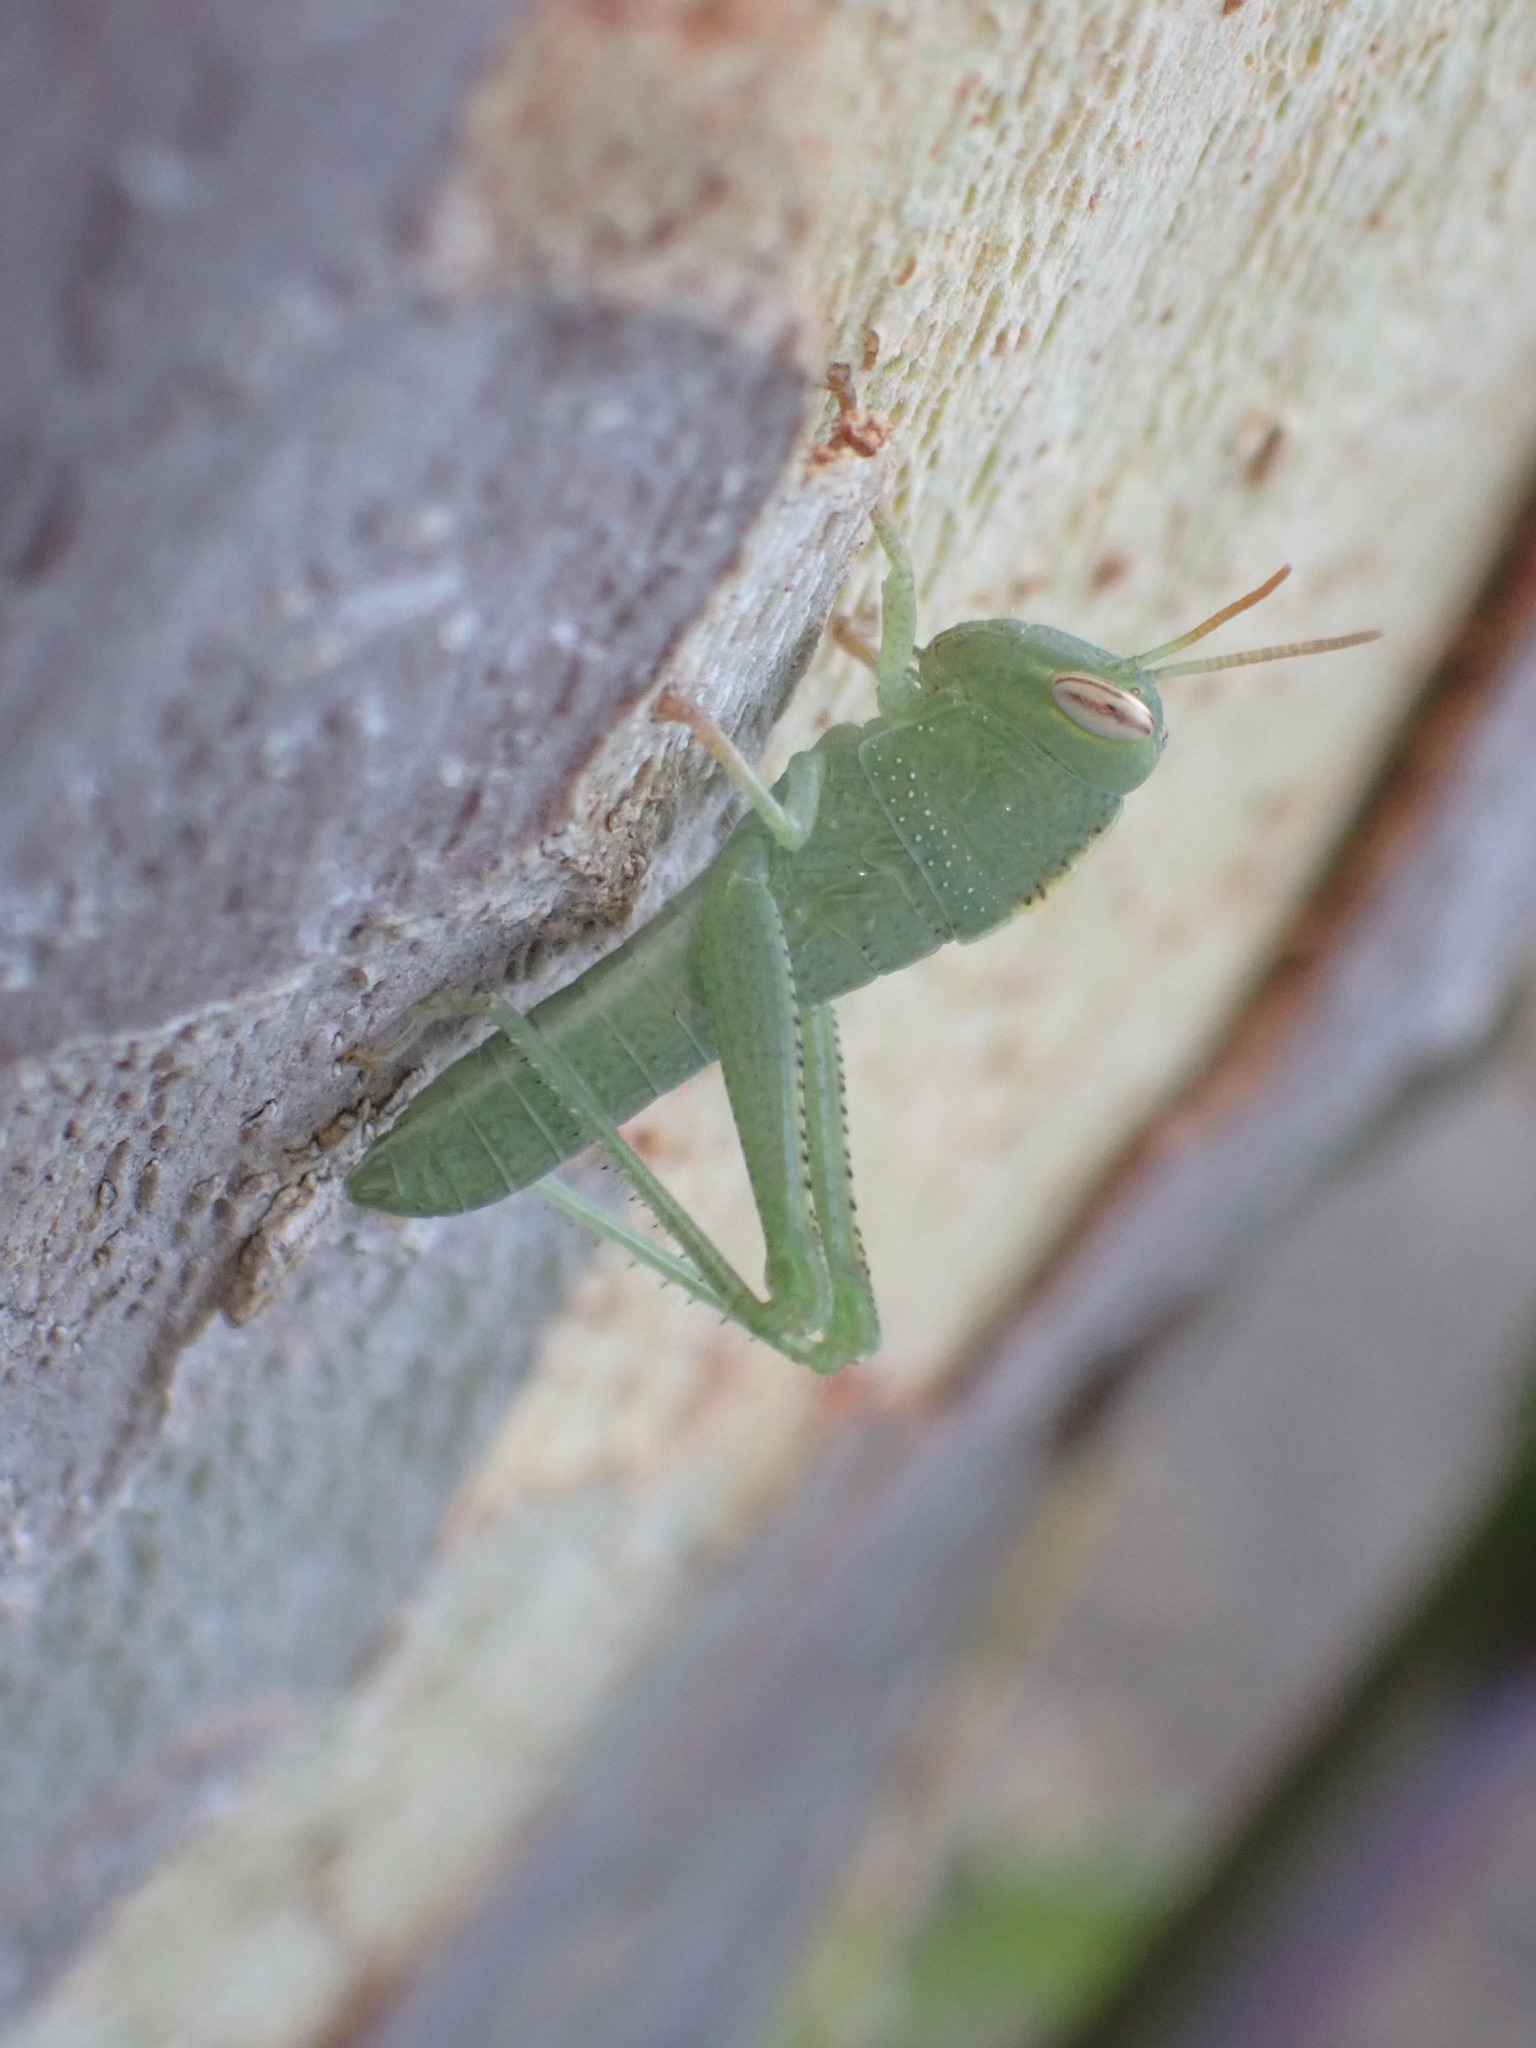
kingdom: Animalia
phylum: Arthropoda
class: Insecta
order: Orthoptera
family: Acrididae
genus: Anacridium
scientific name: Anacridium aegyptium
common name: Egyptian grasshopper
